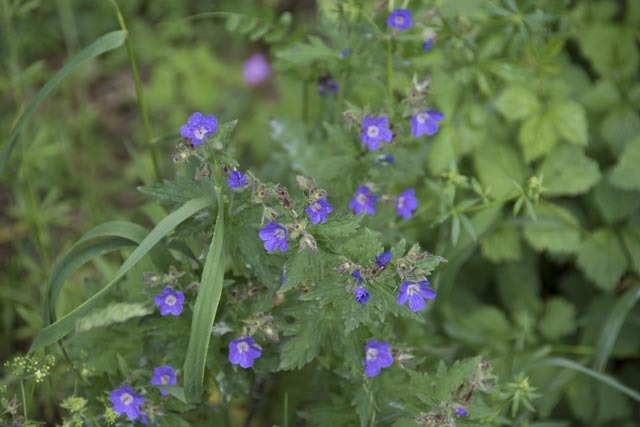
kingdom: Plantae
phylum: Tracheophyta
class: Magnoliopsida
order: Geraniales
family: Geraniaceae
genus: Geranium
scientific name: Geranium sylvaticum
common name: Wood crane's-bill
